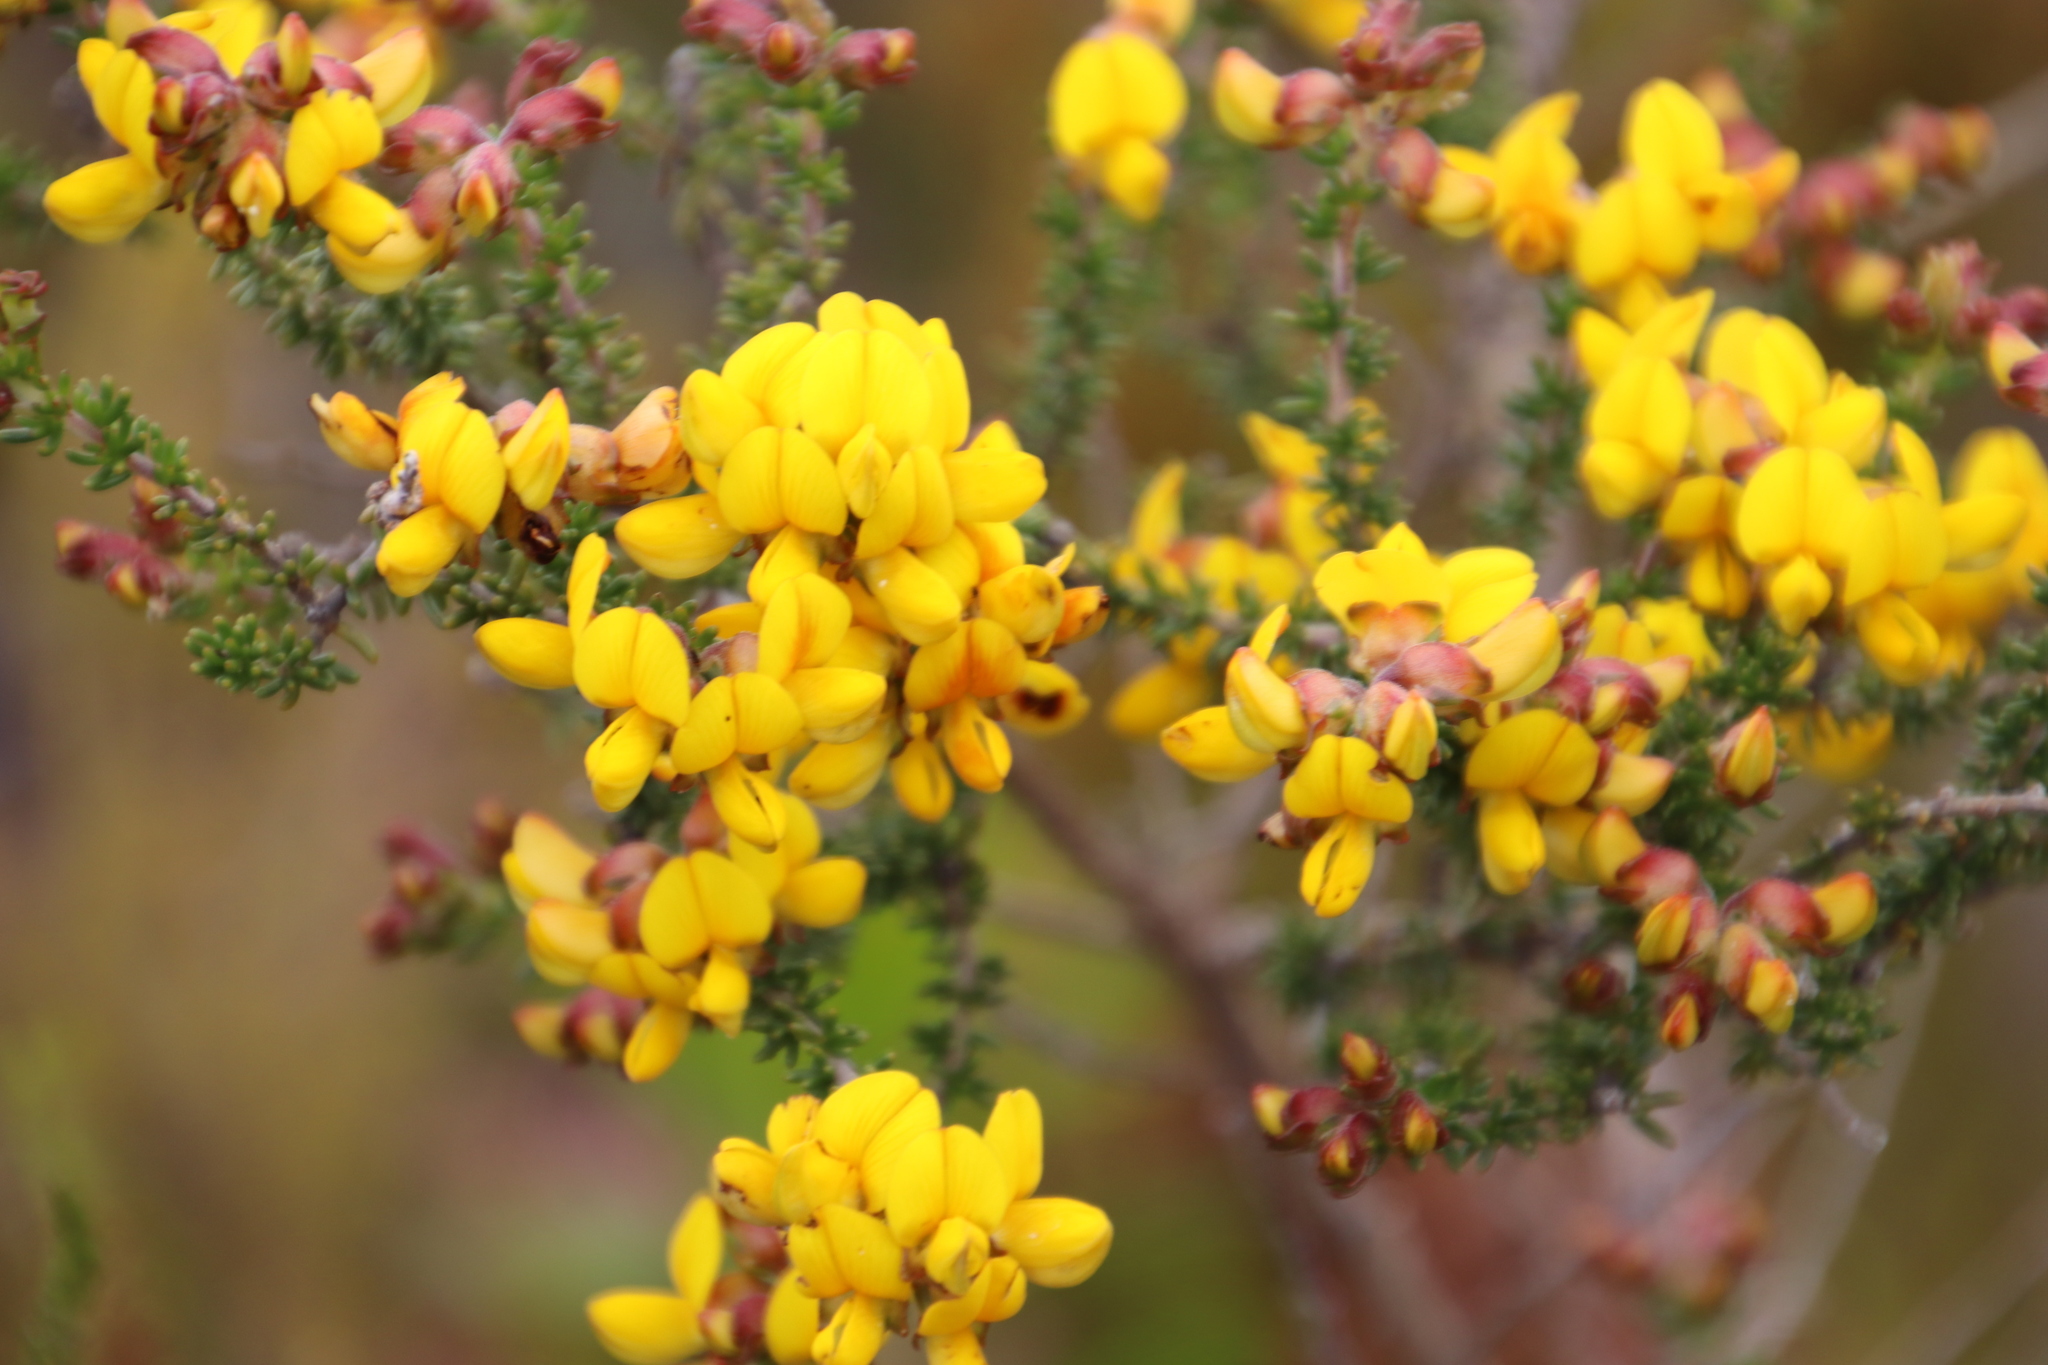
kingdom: Plantae
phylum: Tracheophyta
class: Magnoliopsida
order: Fabales
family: Fabaceae
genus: Aspalathus
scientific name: Aspalathus carnosa
